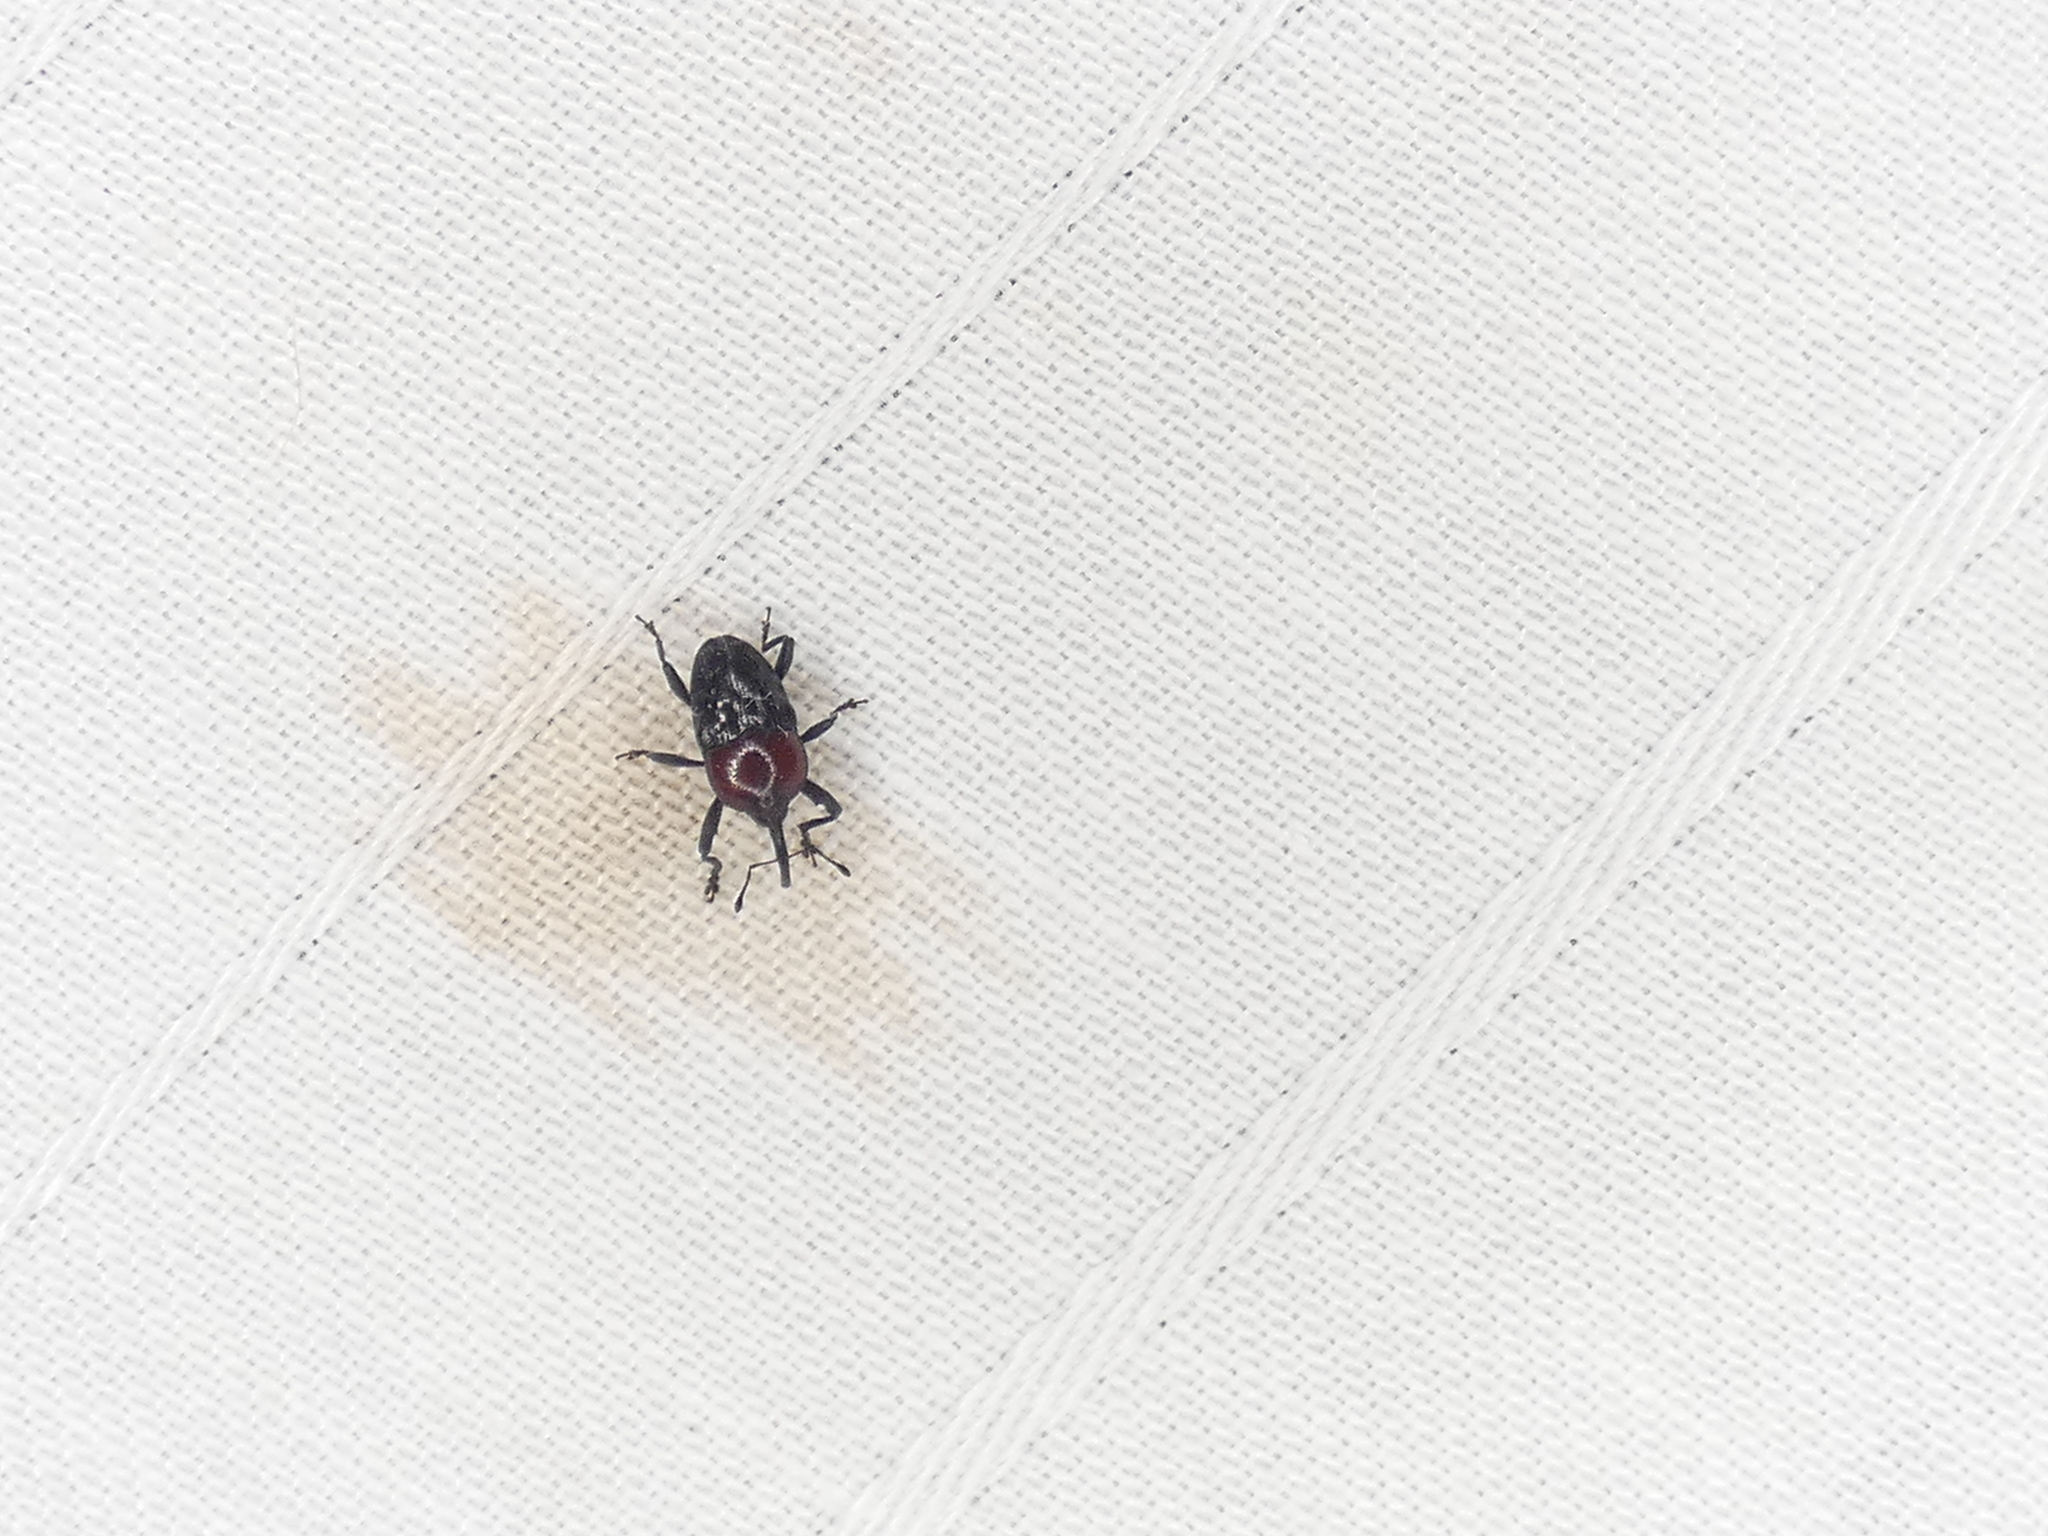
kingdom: Animalia
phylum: Arthropoda
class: Insecta
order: Coleoptera
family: Curculionidae
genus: Madarellus
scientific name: Madarellus undulatus
